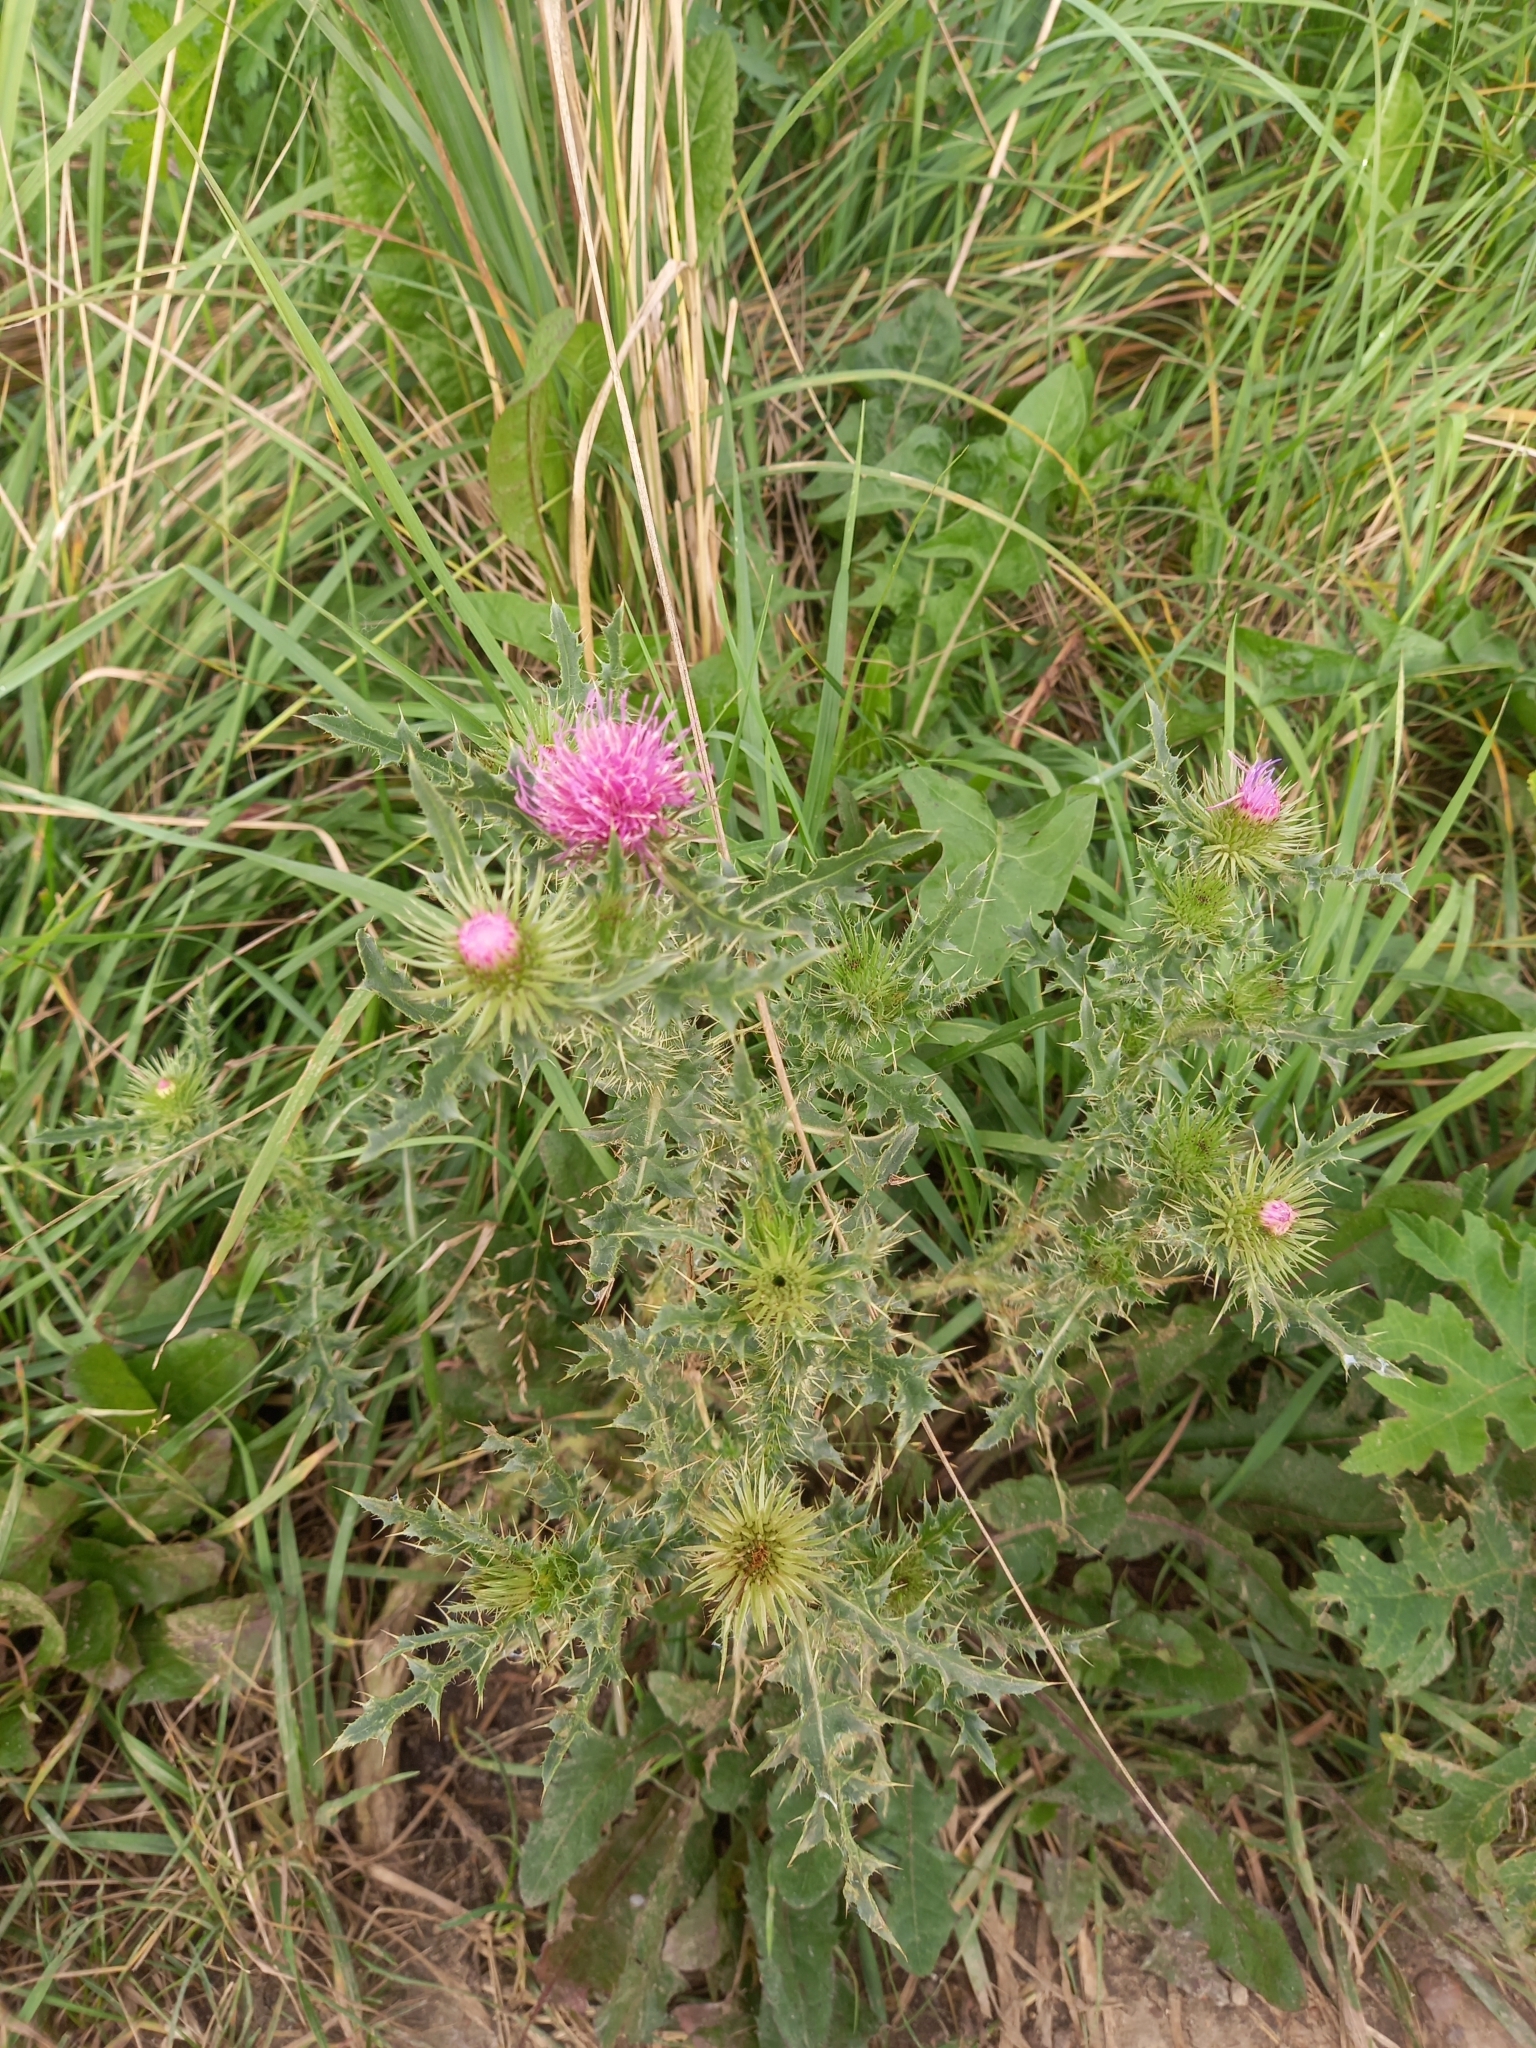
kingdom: Plantae
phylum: Tracheophyta
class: Magnoliopsida
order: Asterales
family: Asteraceae
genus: Carduus
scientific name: Carduus acanthoides
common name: Plumeless thistle
